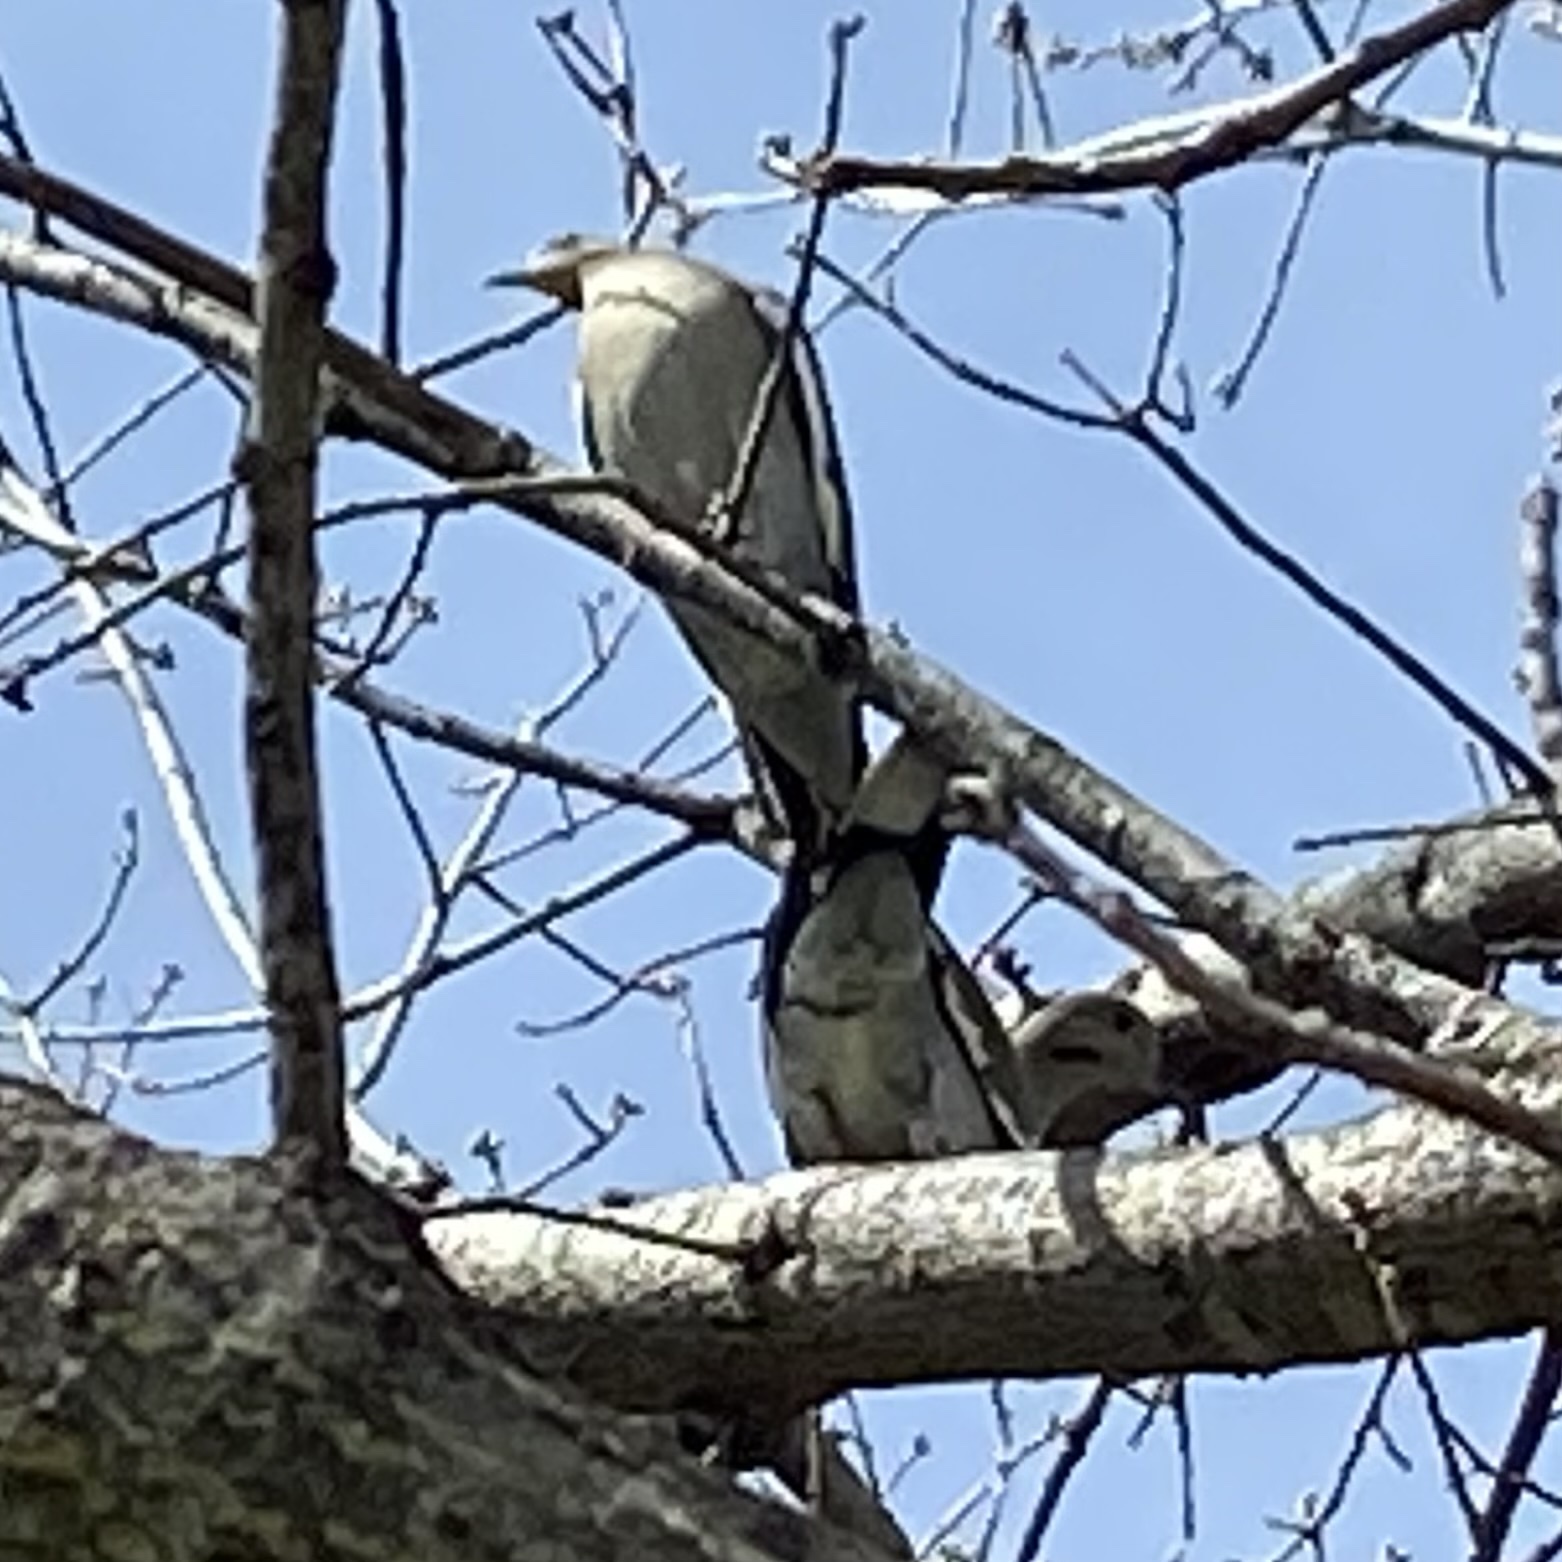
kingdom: Animalia
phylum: Chordata
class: Aves
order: Columbiformes
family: Columbidae
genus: Zenaida
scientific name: Zenaida asiatica
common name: White-winged dove
